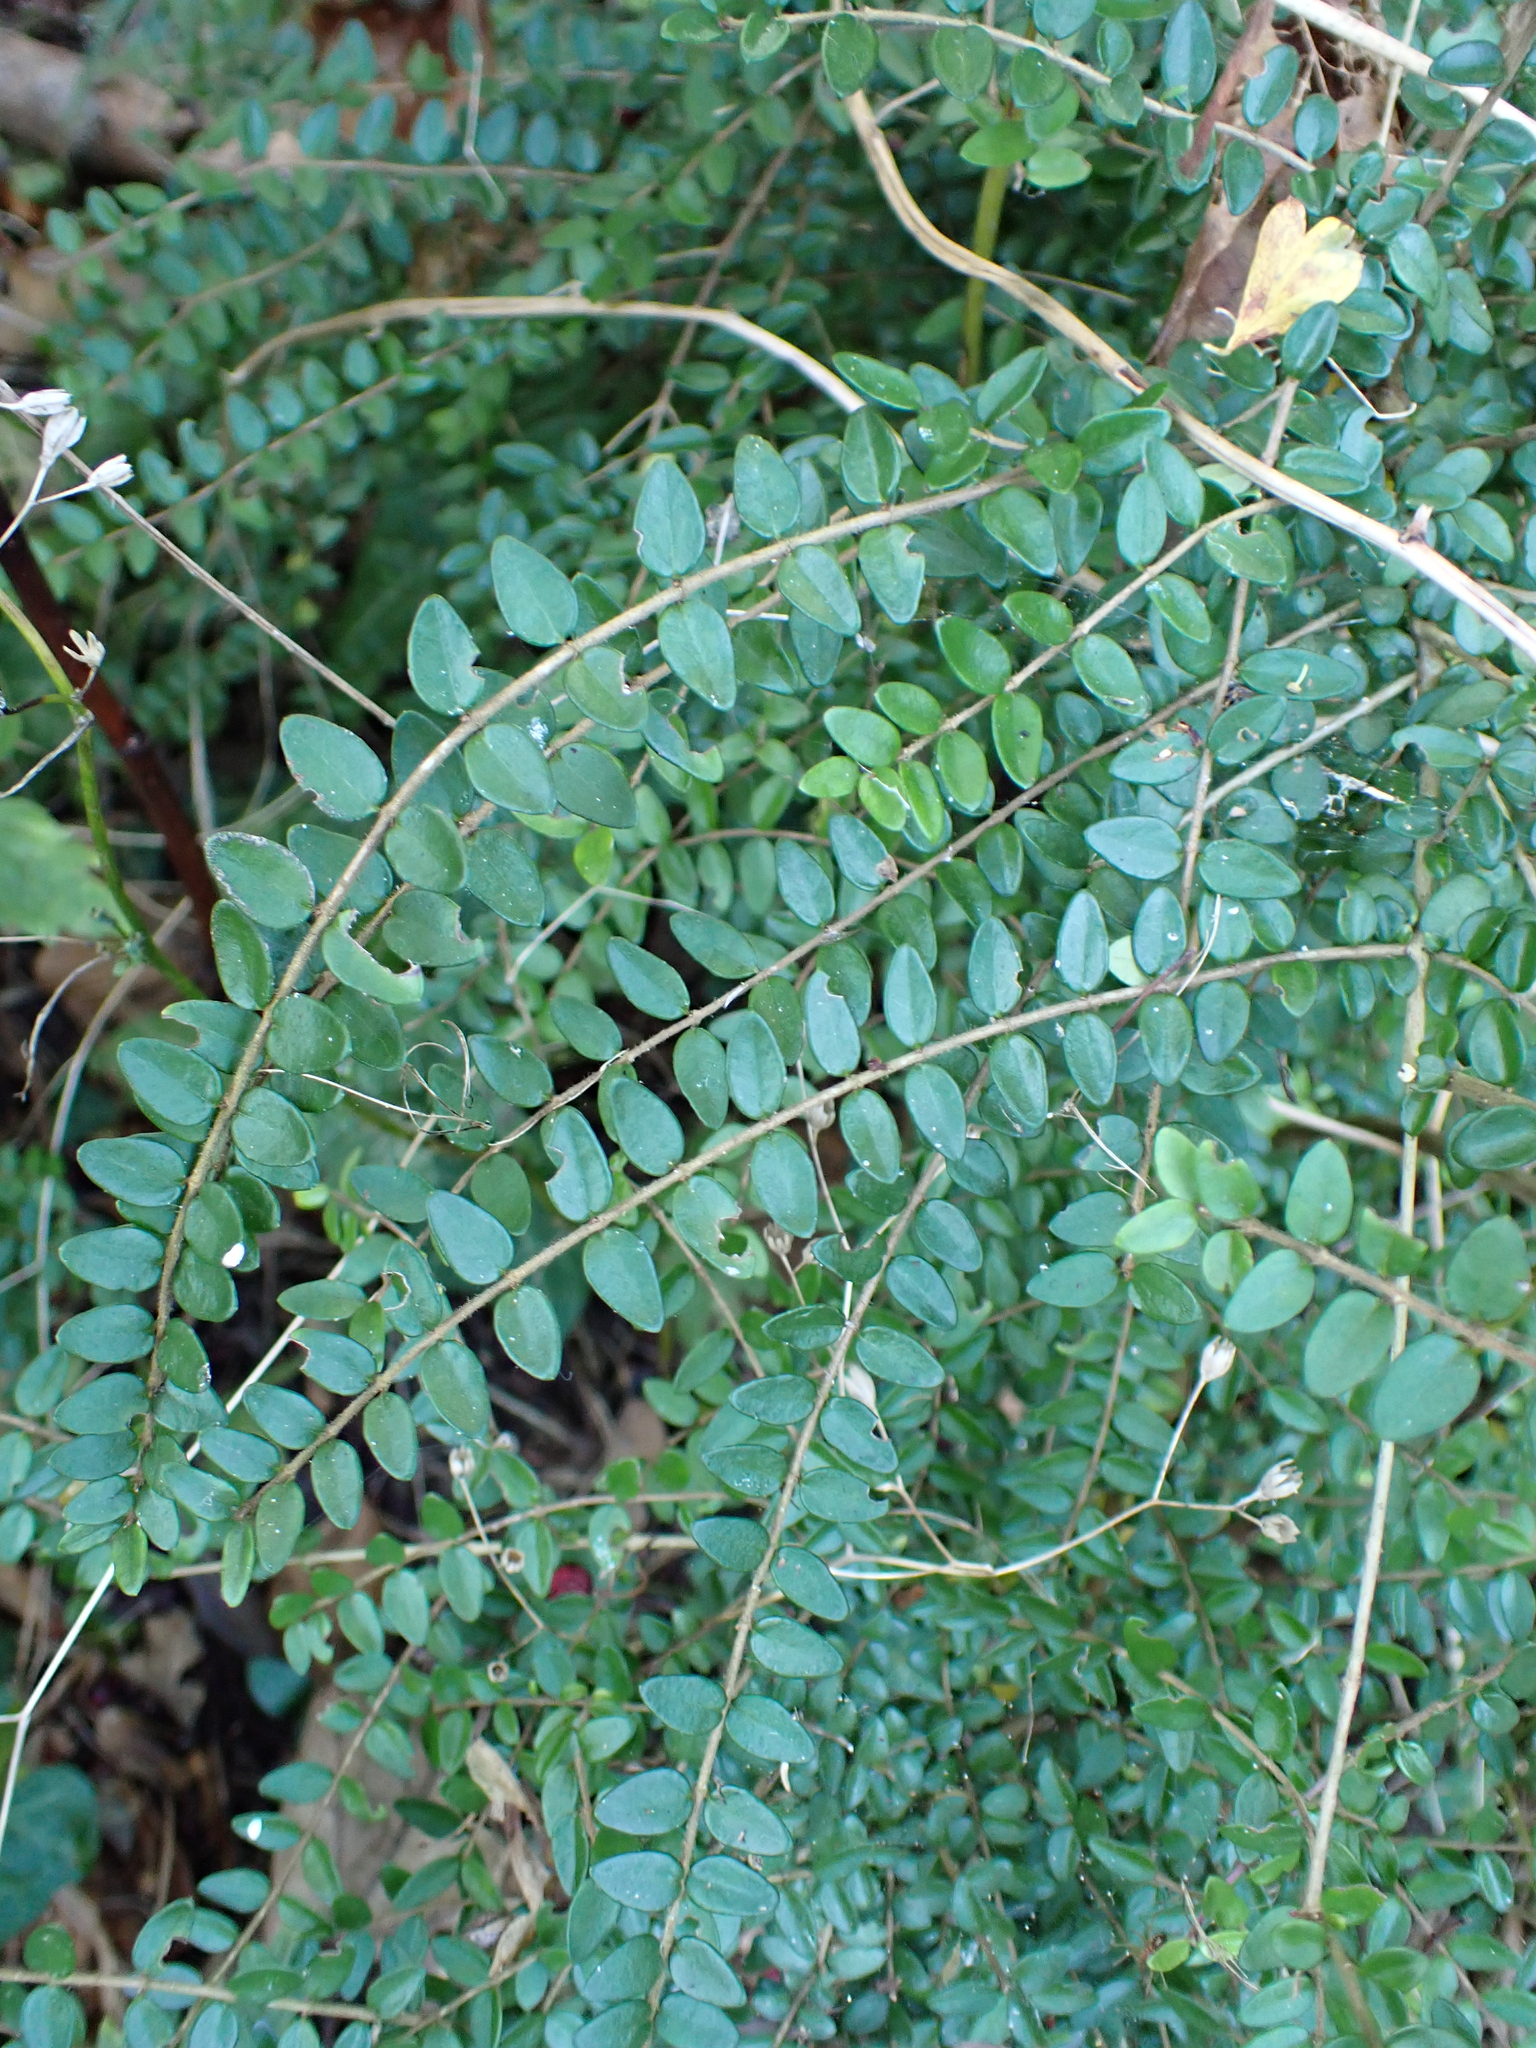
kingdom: Plantae
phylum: Tracheophyta
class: Magnoliopsida
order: Dipsacales
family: Caprifoliaceae
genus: Lonicera
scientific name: Lonicera ligustrina
